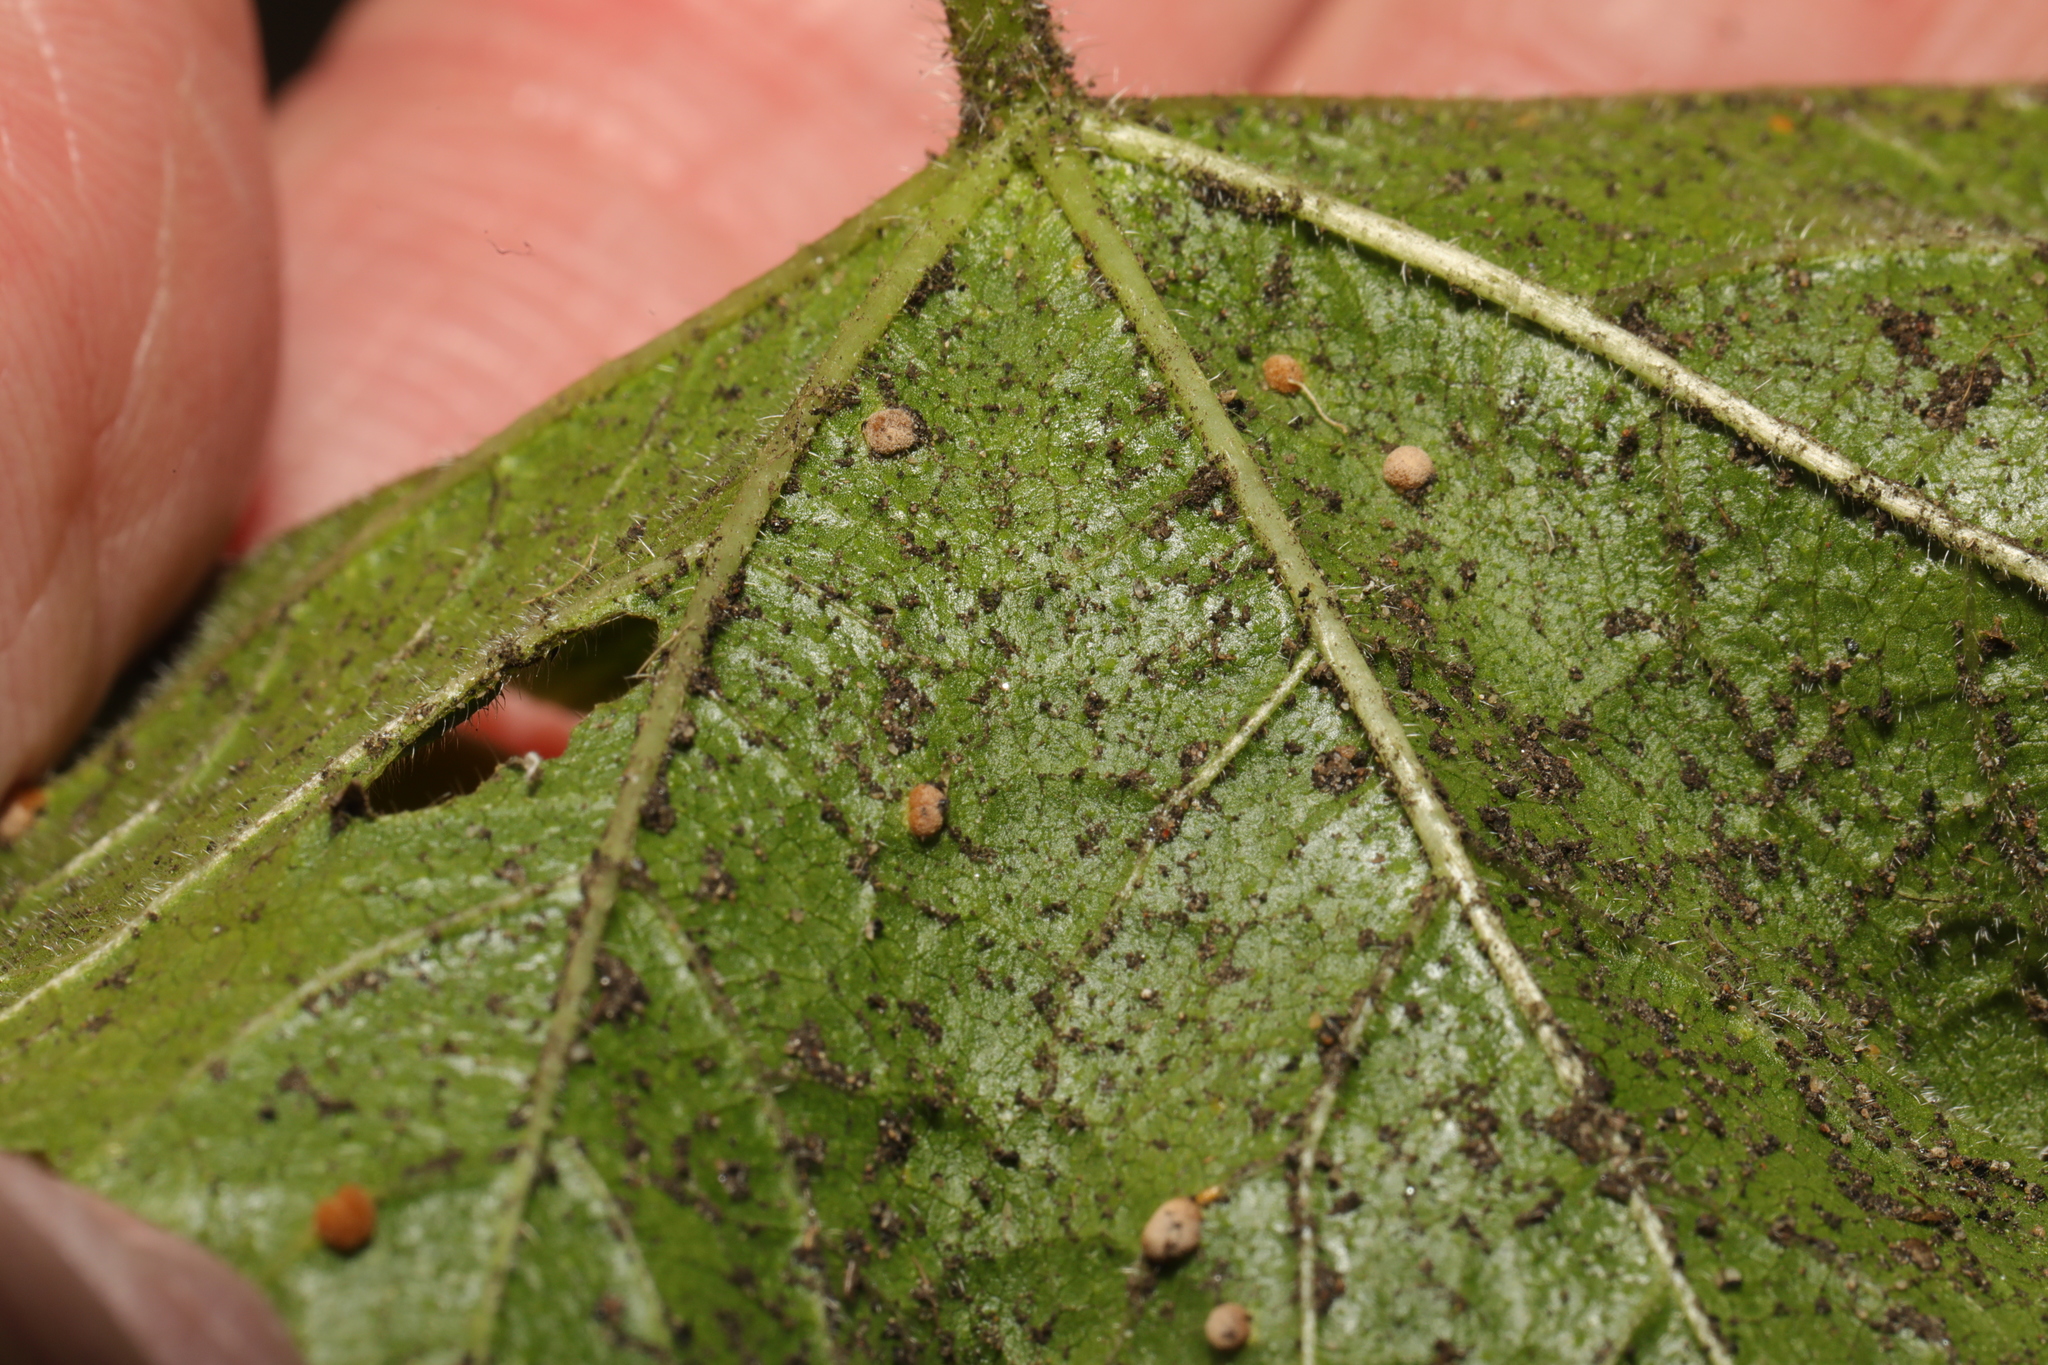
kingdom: Fungi
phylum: Basidiomycota
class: Pucciniomycetes
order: Pucciniales
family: Pucciniaceae
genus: Puccinia
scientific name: Puccinia malvacearum
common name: Hollyhock rust
